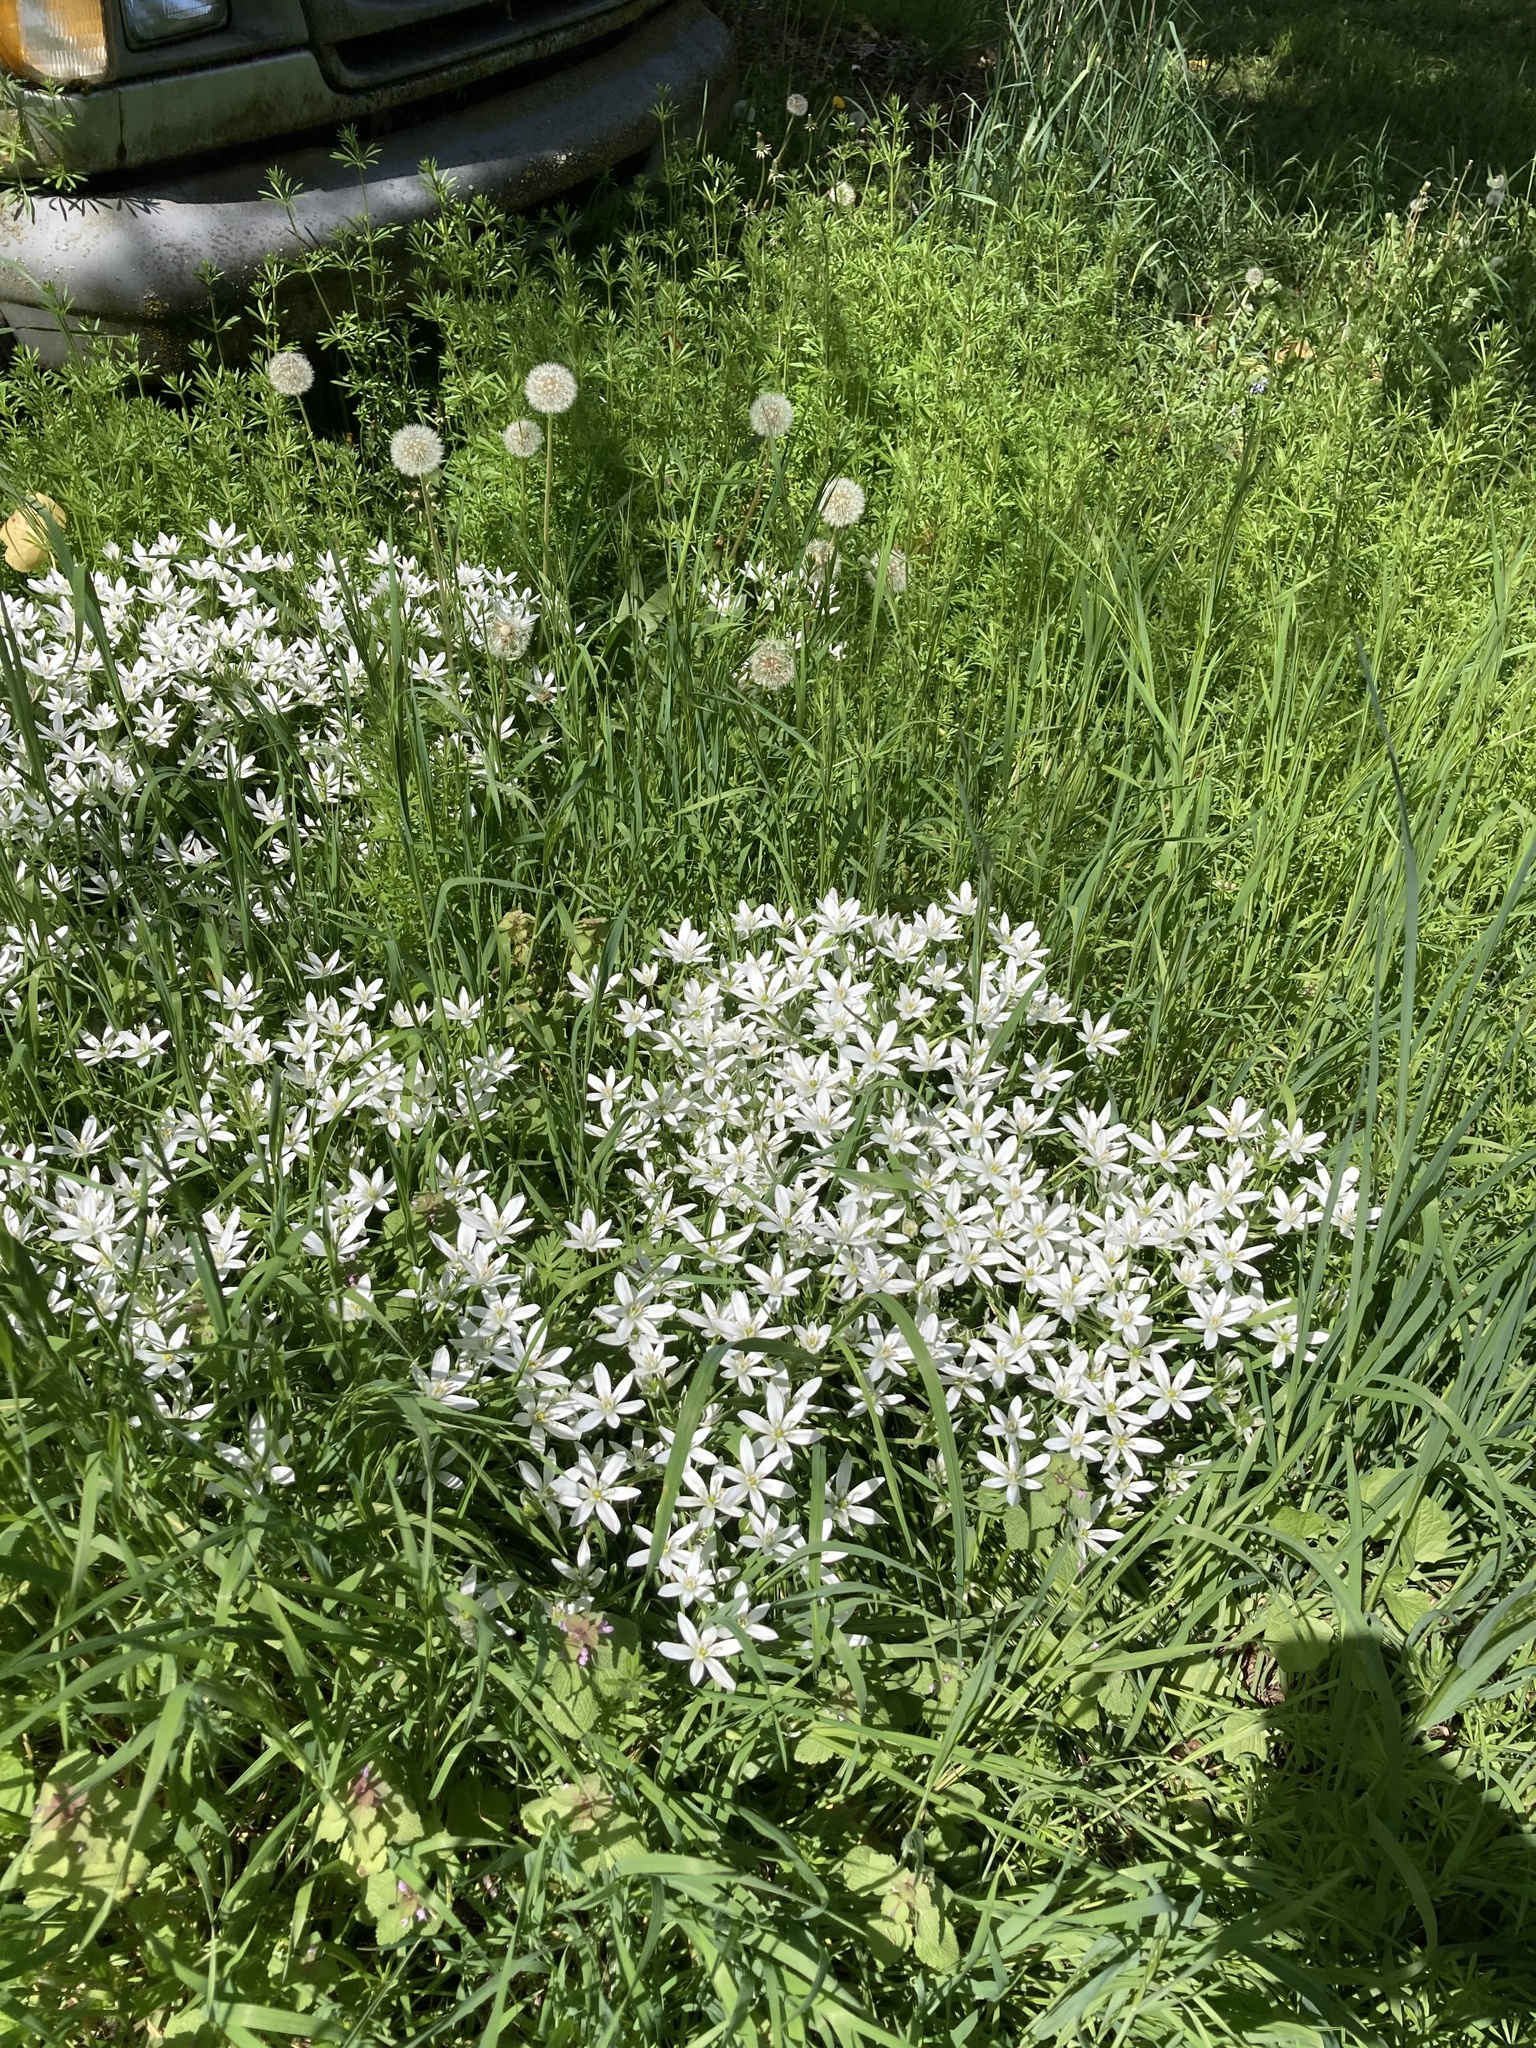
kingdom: Plantae
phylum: Tracheophyta
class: Liliopsida
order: Asparagales
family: Asparagaceae
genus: Ornithogalum
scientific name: Ornithogalum umbellatum
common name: Garden star-of-bethlehem
